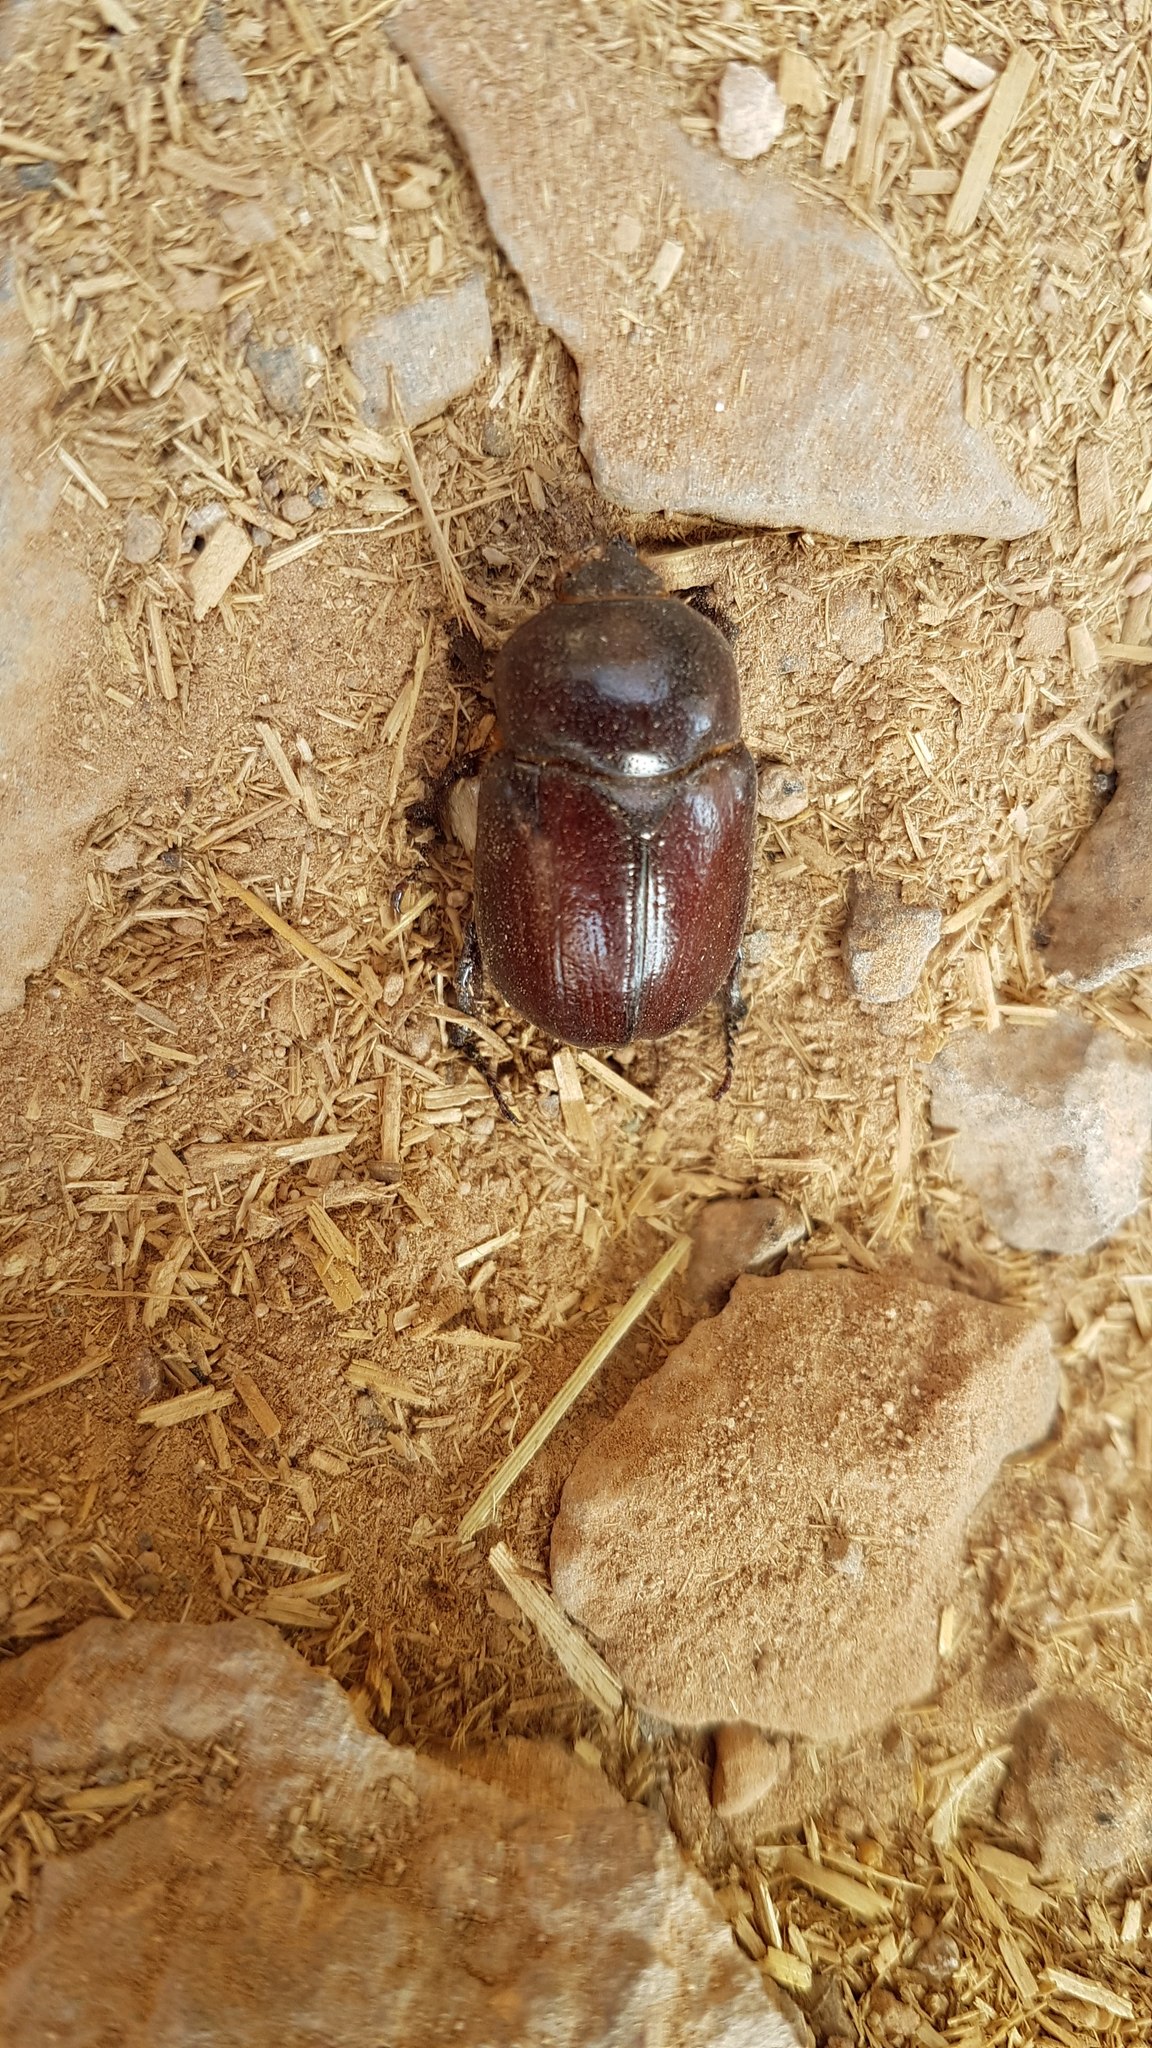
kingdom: Animalia
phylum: Arthropoda
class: Insecta
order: Coleoptera
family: Scarabaeidae
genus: Phyllognathus
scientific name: Phyllognathus excavatus
